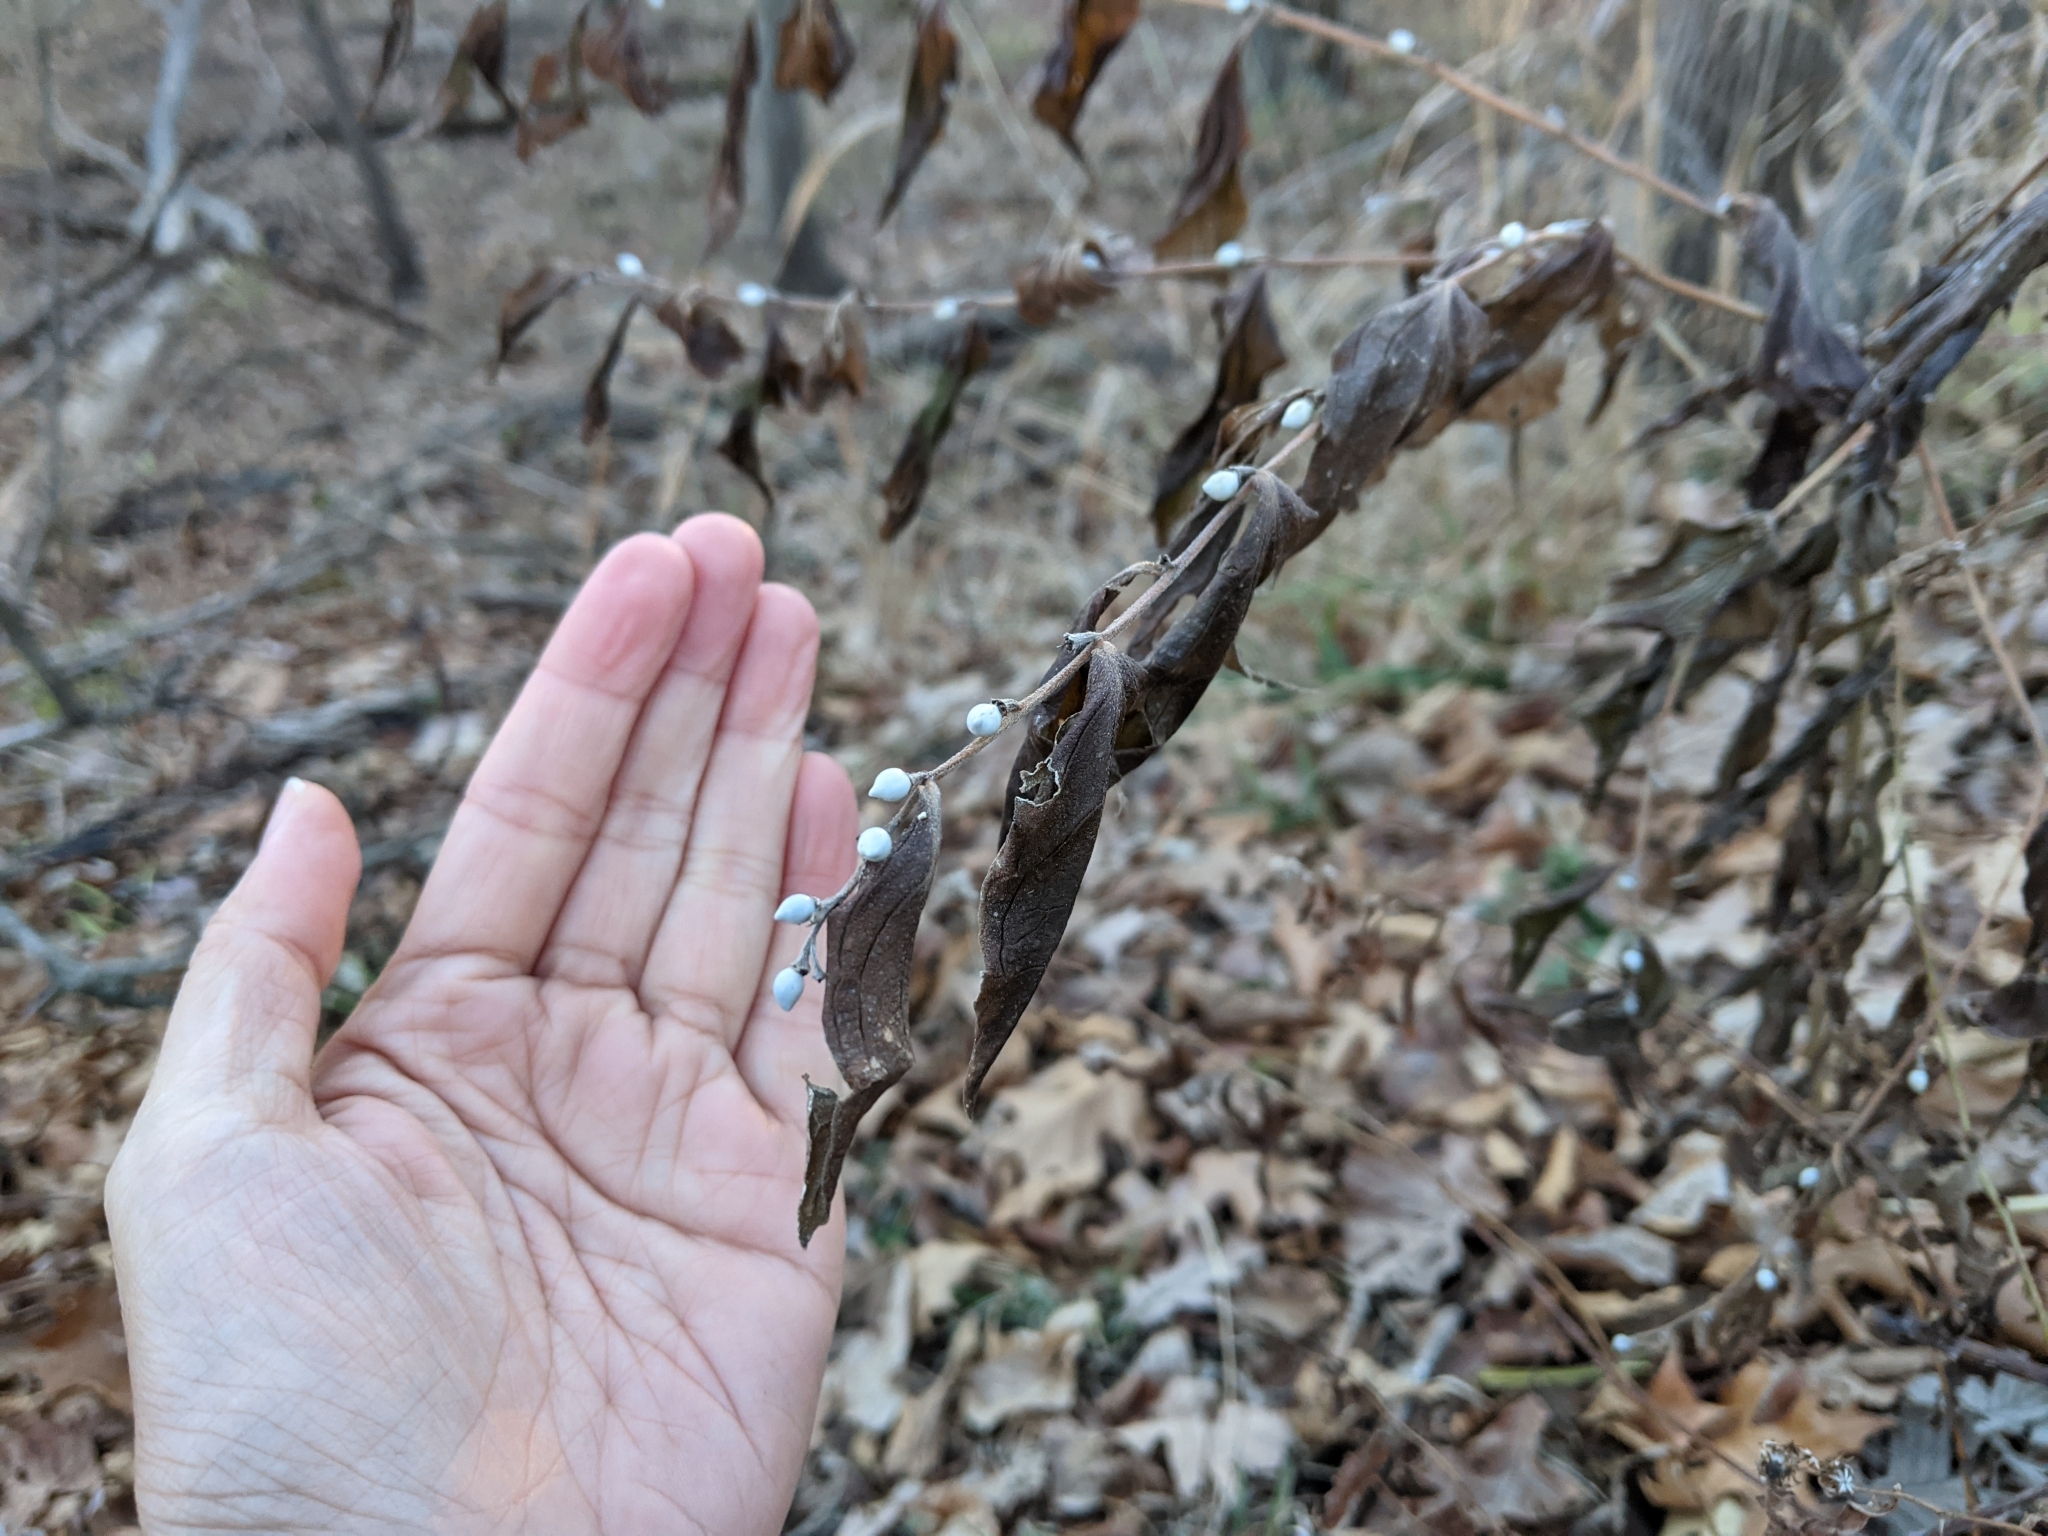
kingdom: Plantae
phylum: Tracheophyta
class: Magnoliopsida
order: Boraginales
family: Boraginaceae
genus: Lithospermum
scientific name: Lithospermum latifolium
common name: American gromwell
